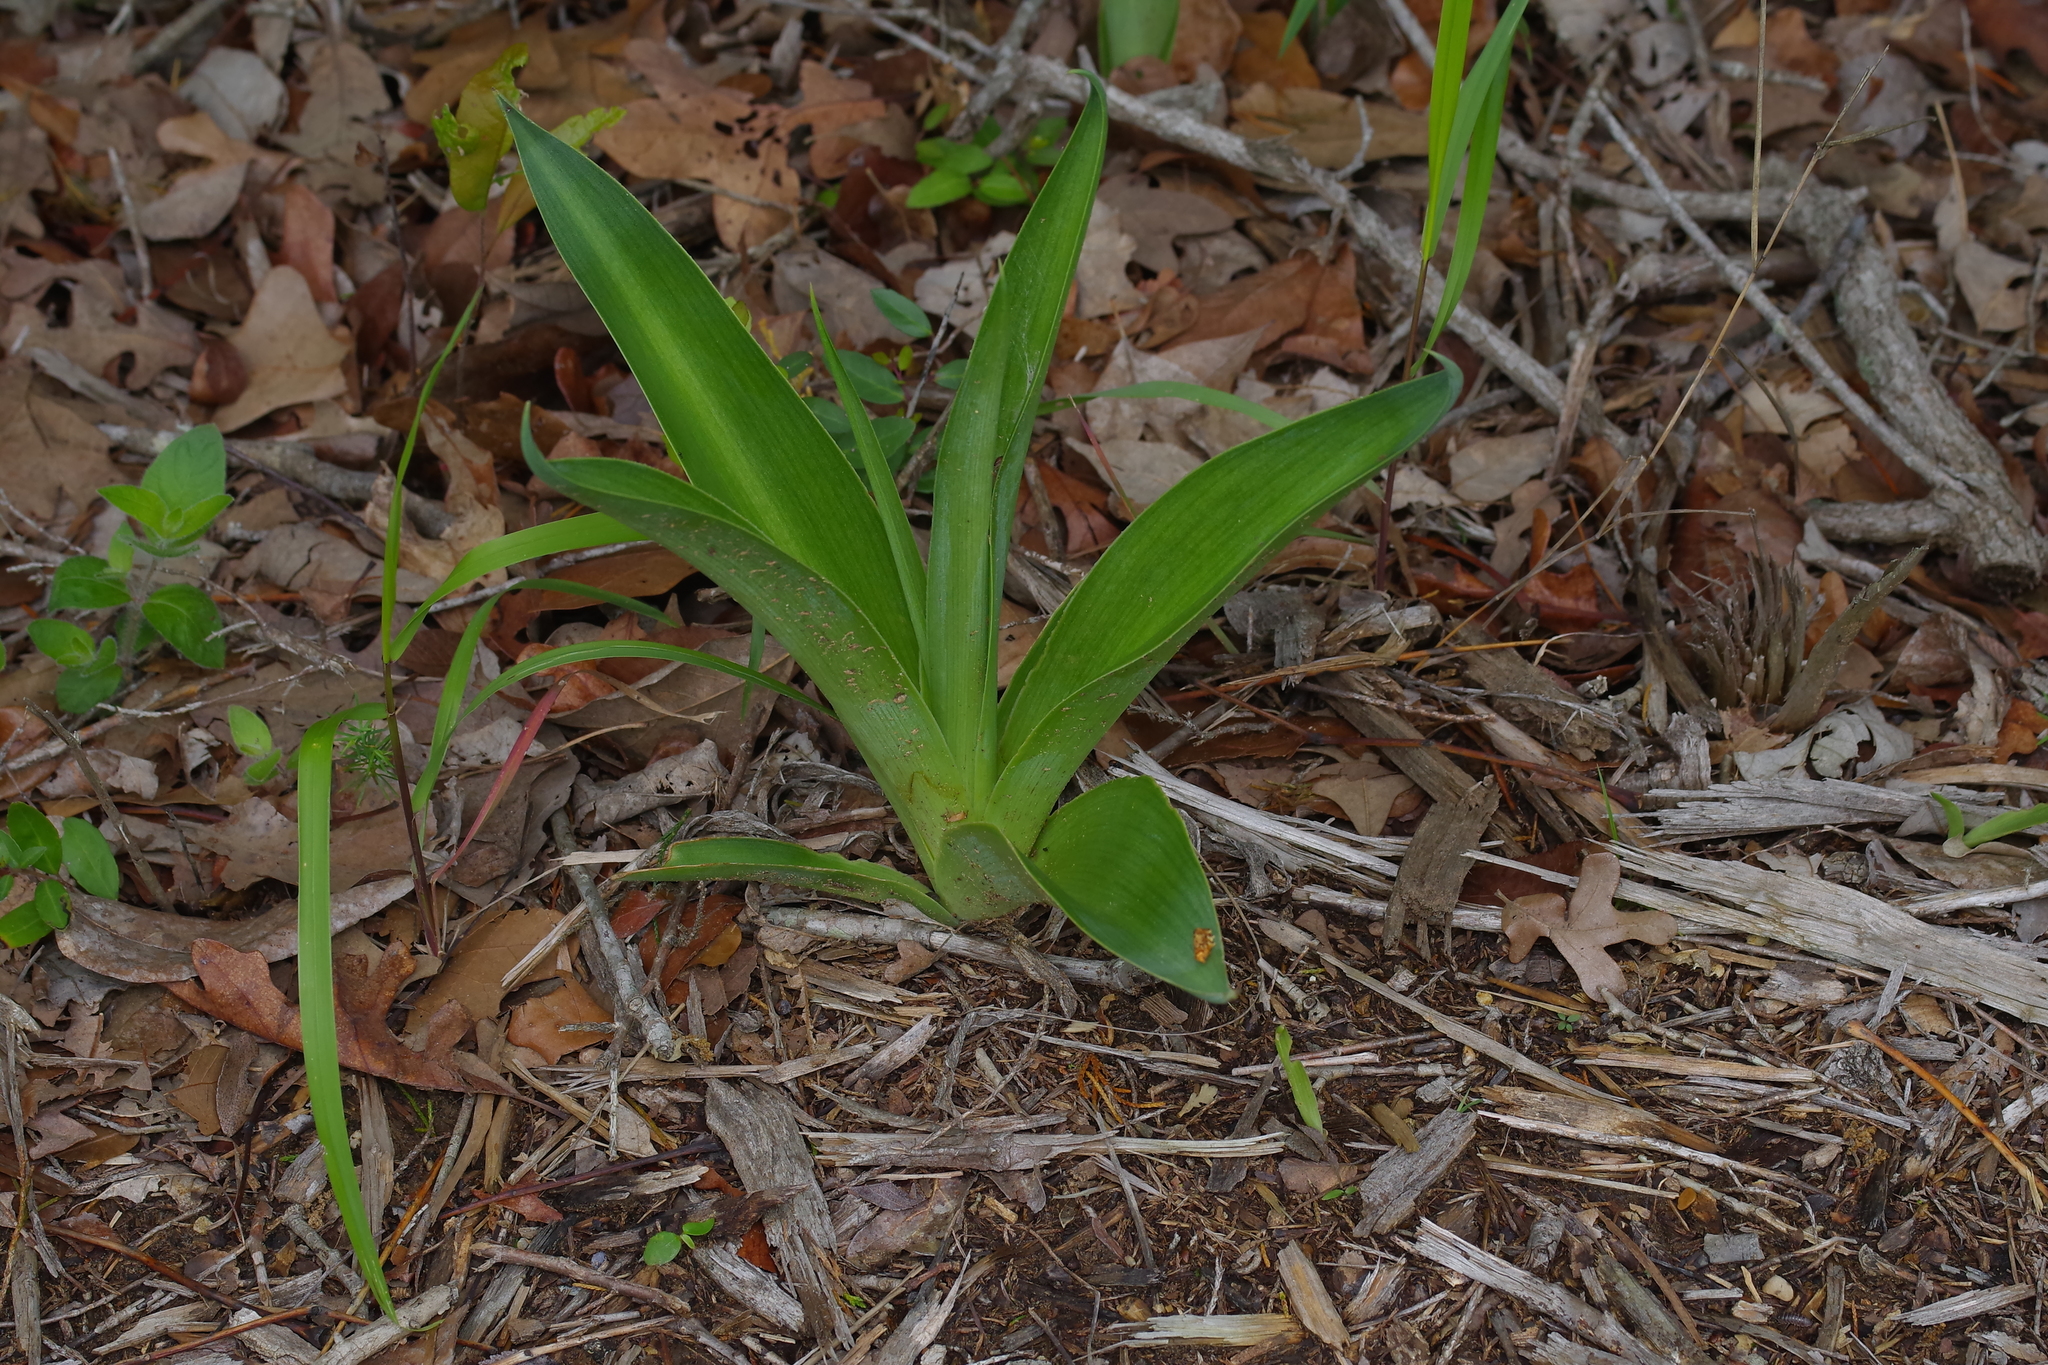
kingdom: Plantae
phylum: Tracheophyta
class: Liliopsida
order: Asparagales
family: Asparagaceae
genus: Agave
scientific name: Agave virginica
